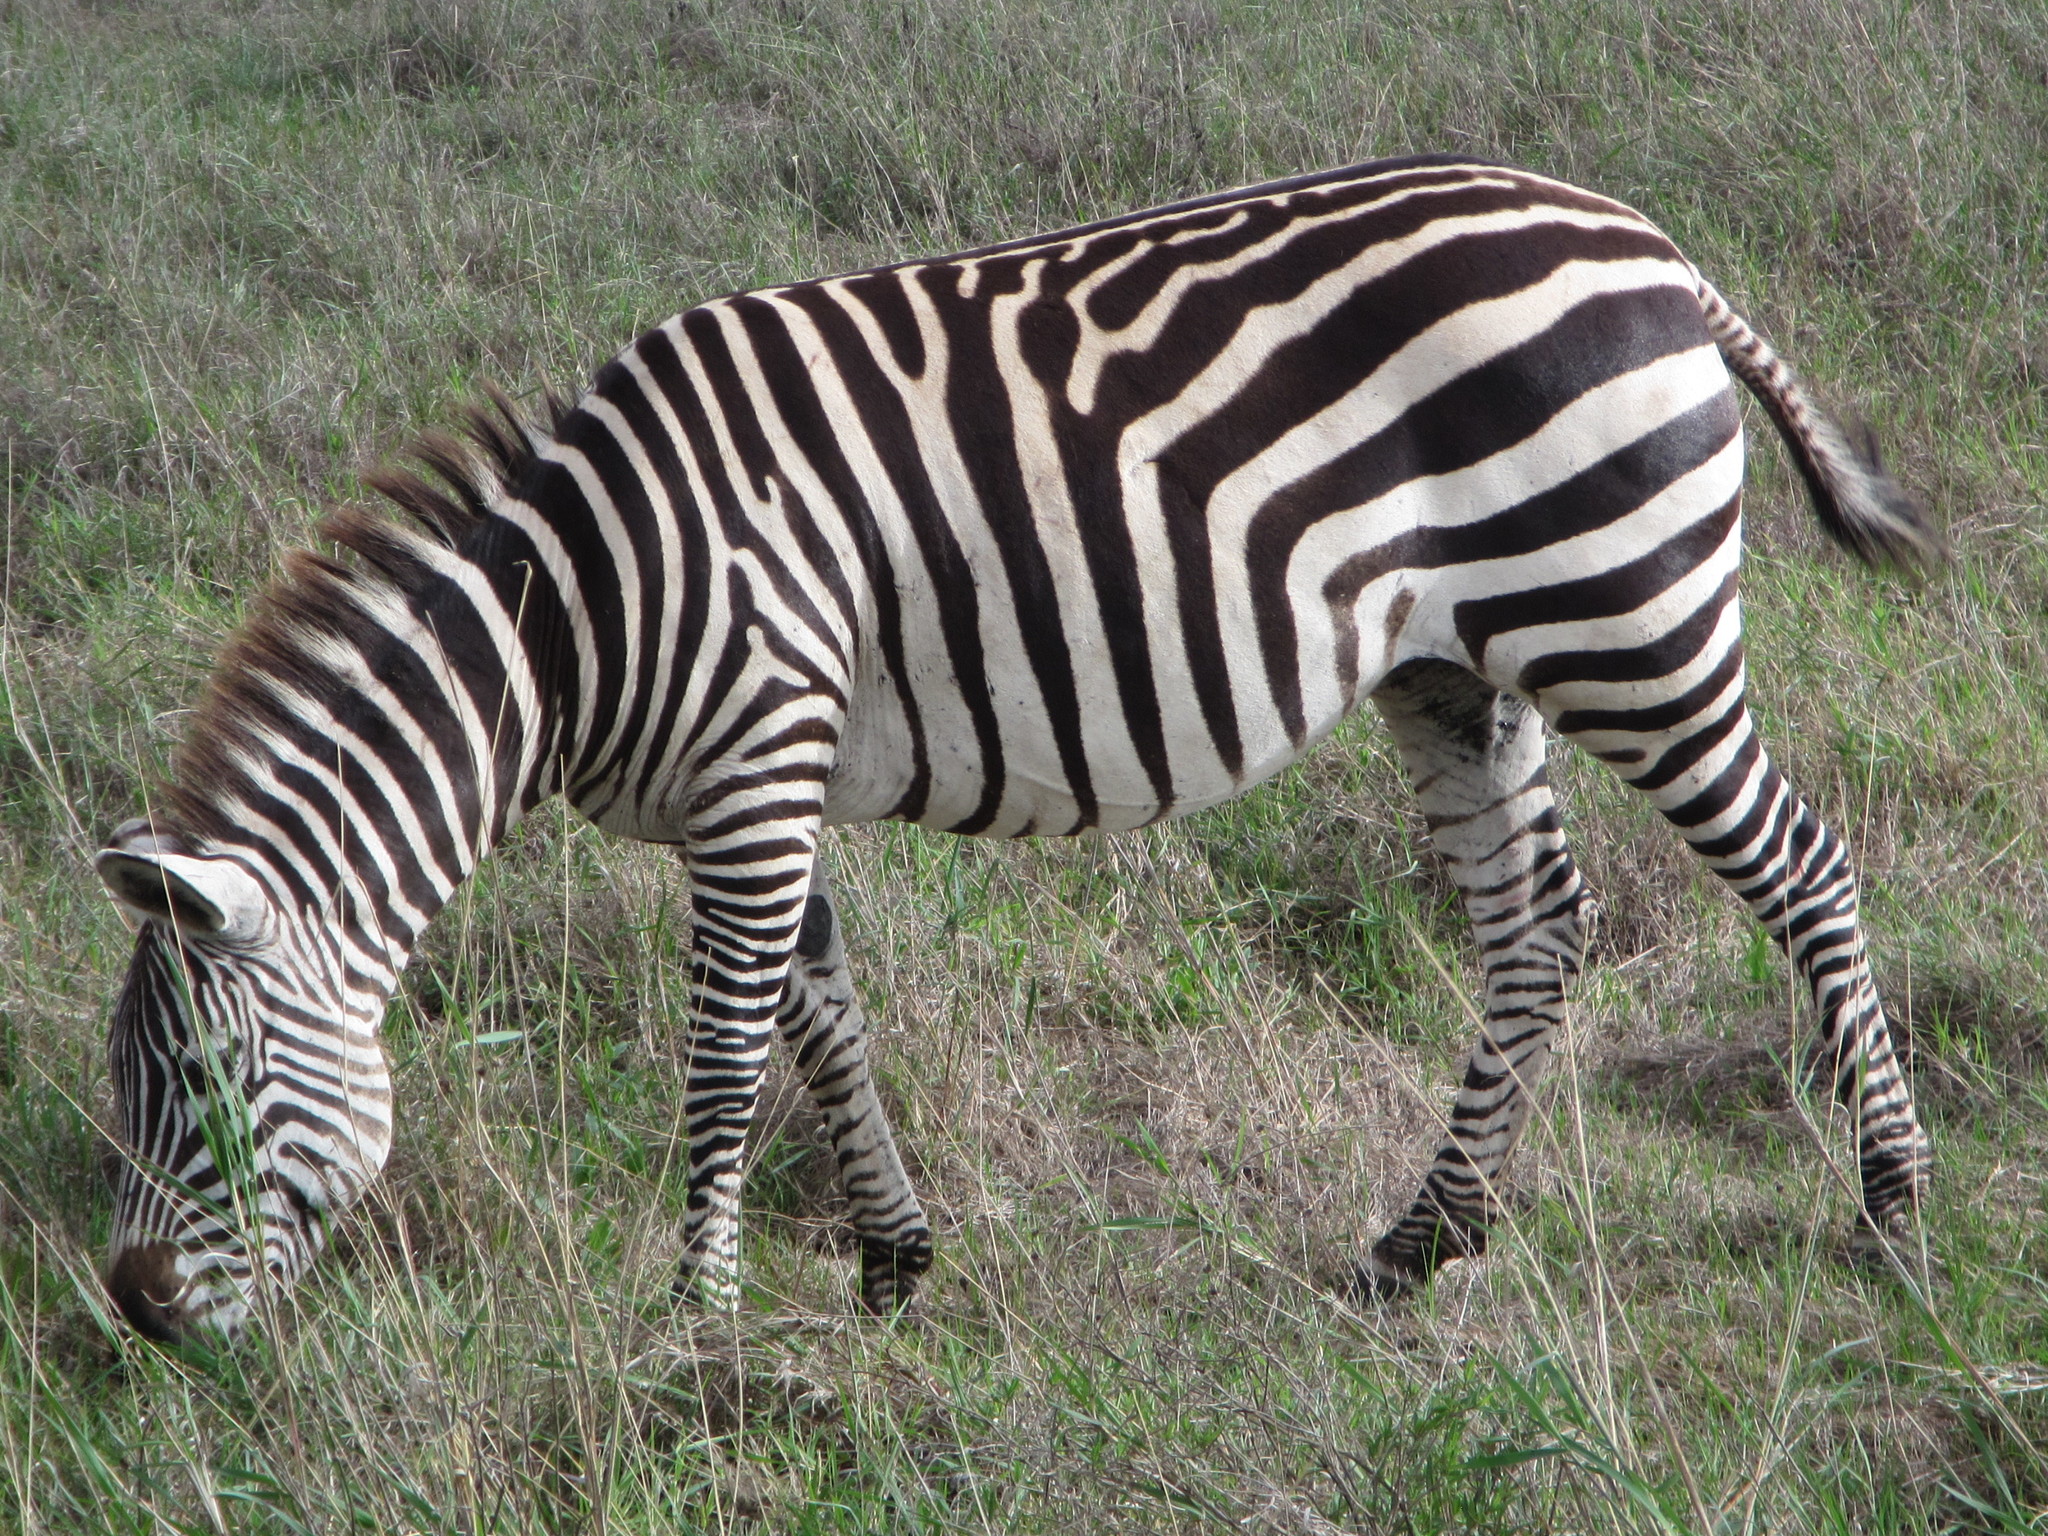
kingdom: Animalia
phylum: Chordata
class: Mammalia
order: Perissodactyla
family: Equidae
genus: Equus
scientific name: Equus quagga
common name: Plains zebra
